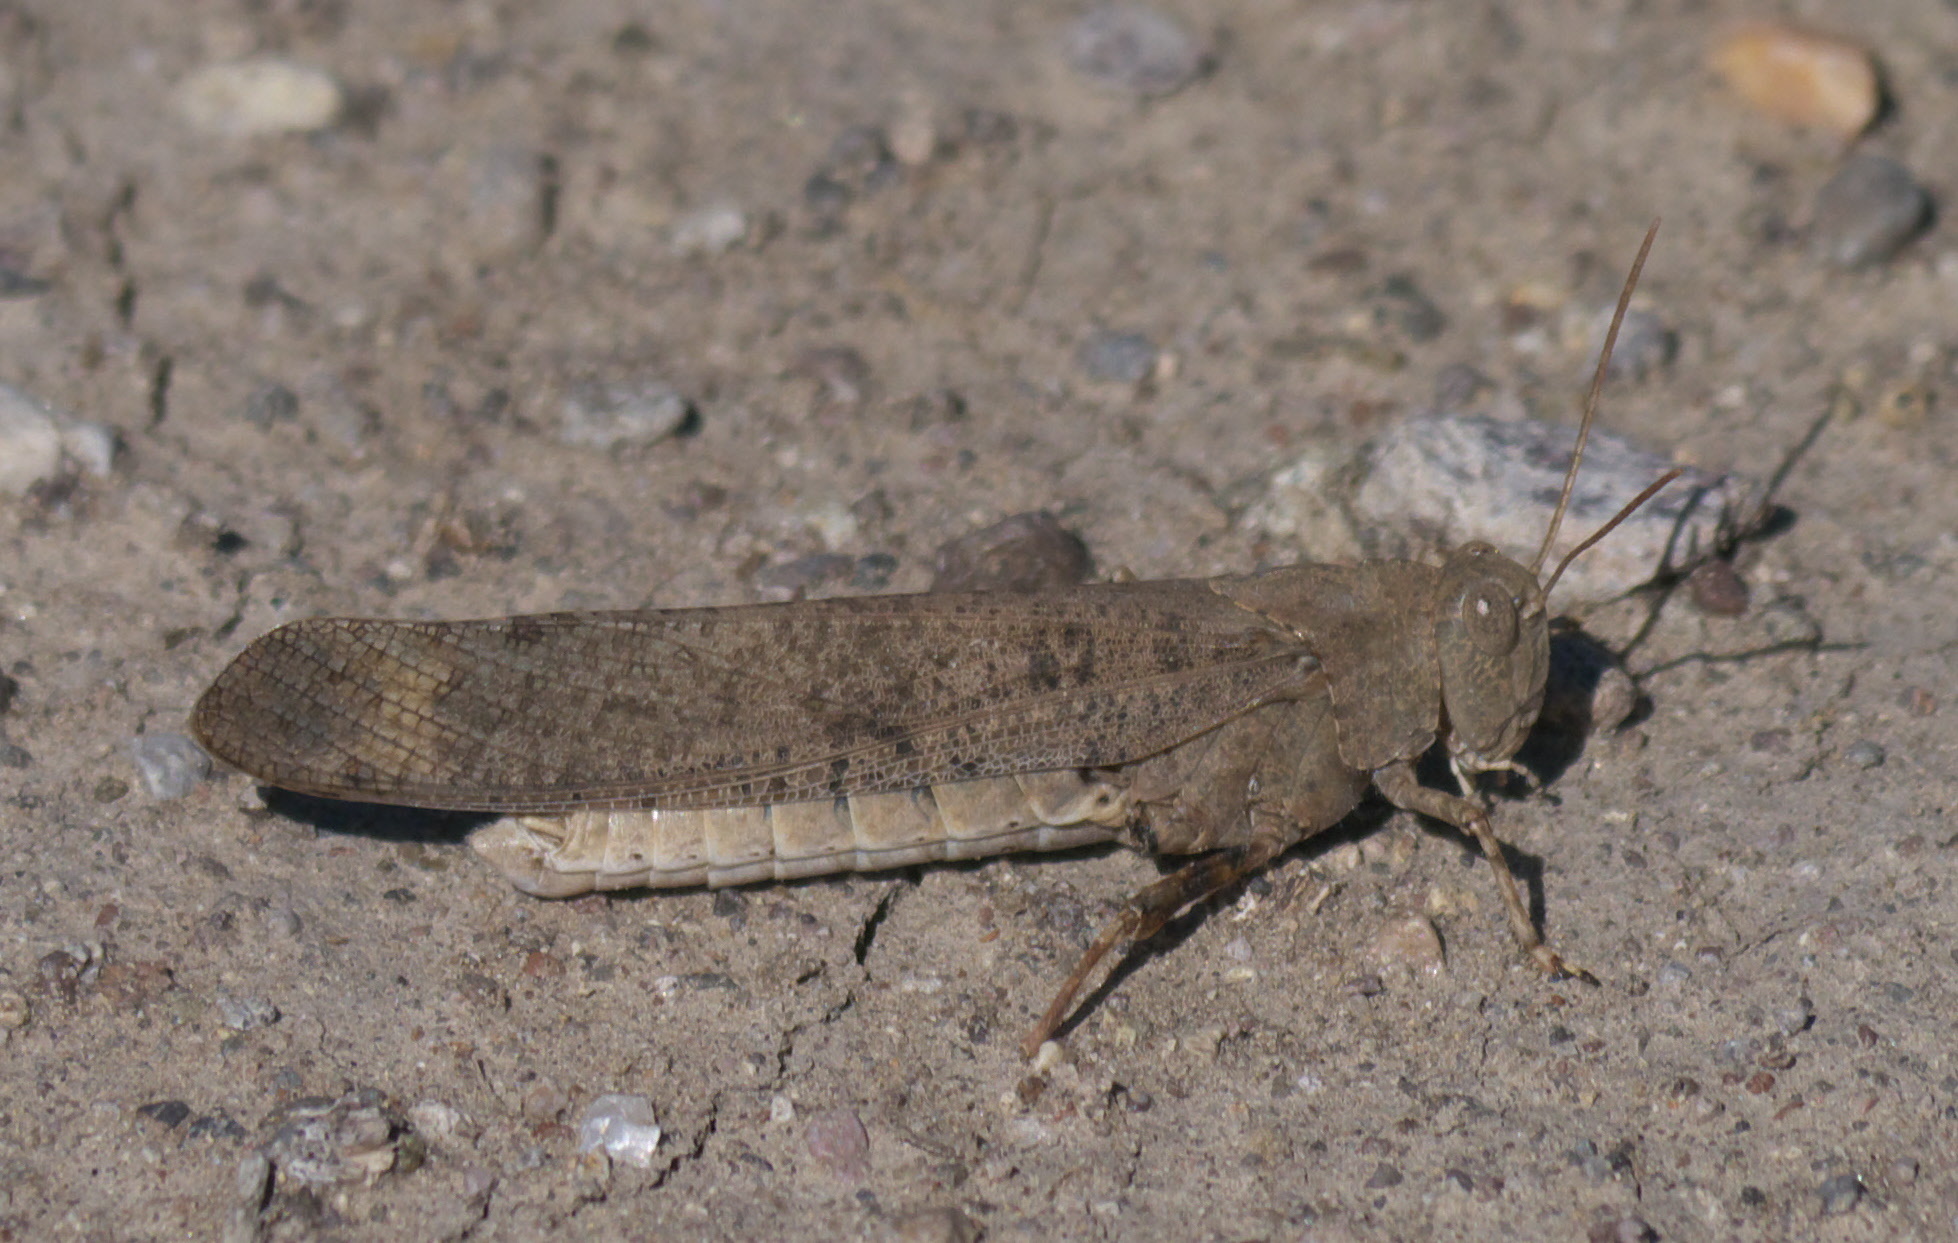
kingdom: Animalia
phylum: Arthropoda
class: Insecta
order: Orthoptera
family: Acrididae
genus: Dissosteira
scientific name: Dissosteira carolina
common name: Carolina grasshopper
